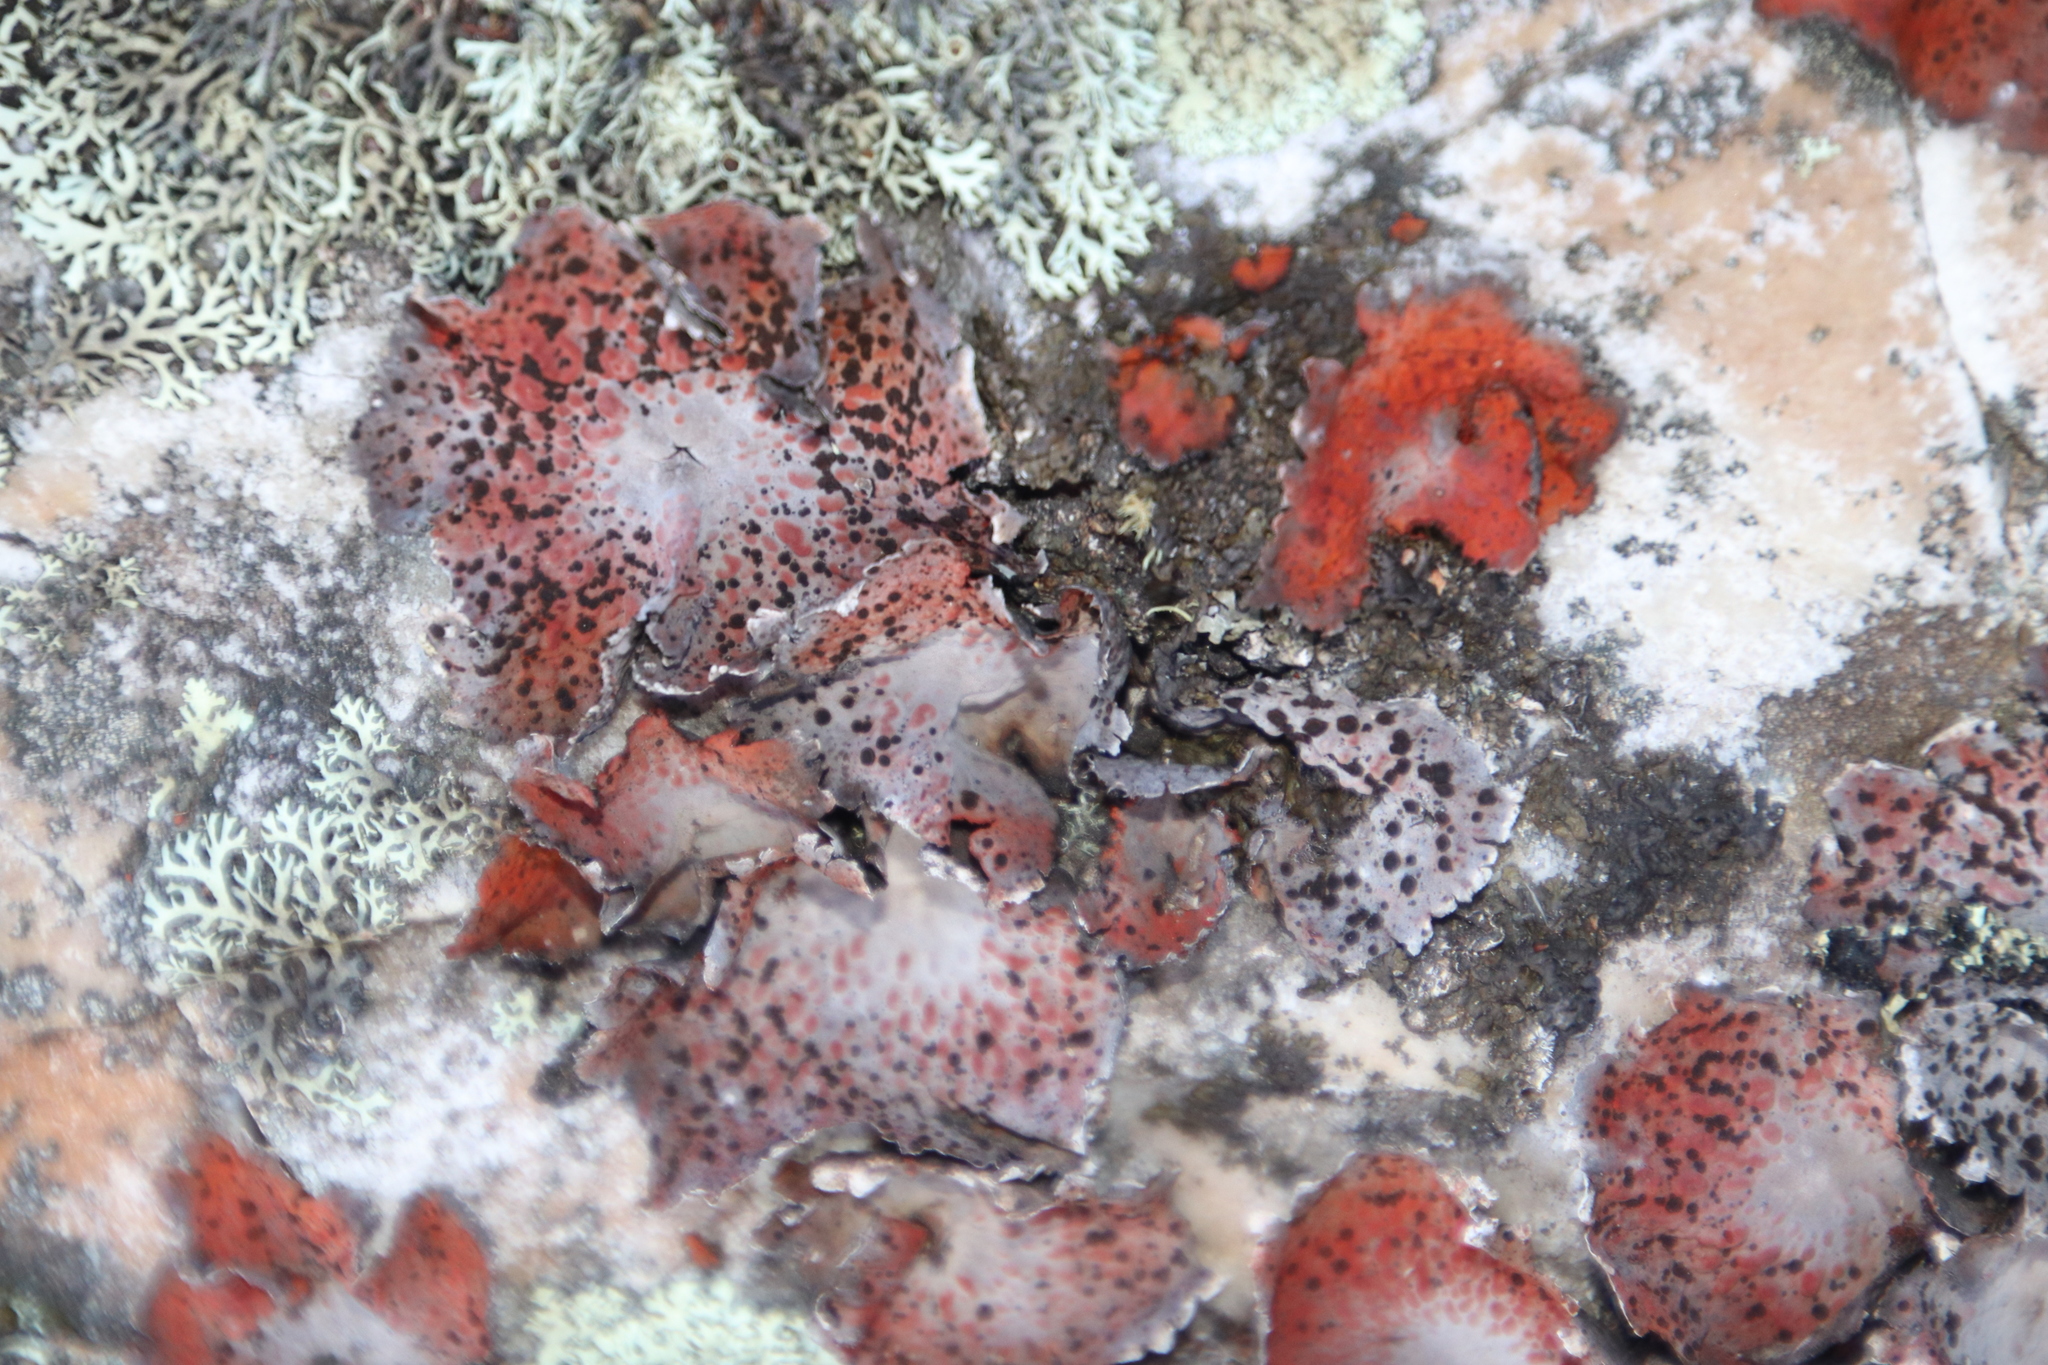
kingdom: Fungi
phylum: Ascomycota
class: Lecanoromycetes
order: Umbilicariales
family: Umbilicariaceae
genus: Lasallia
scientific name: Lasallia rubiginosa
